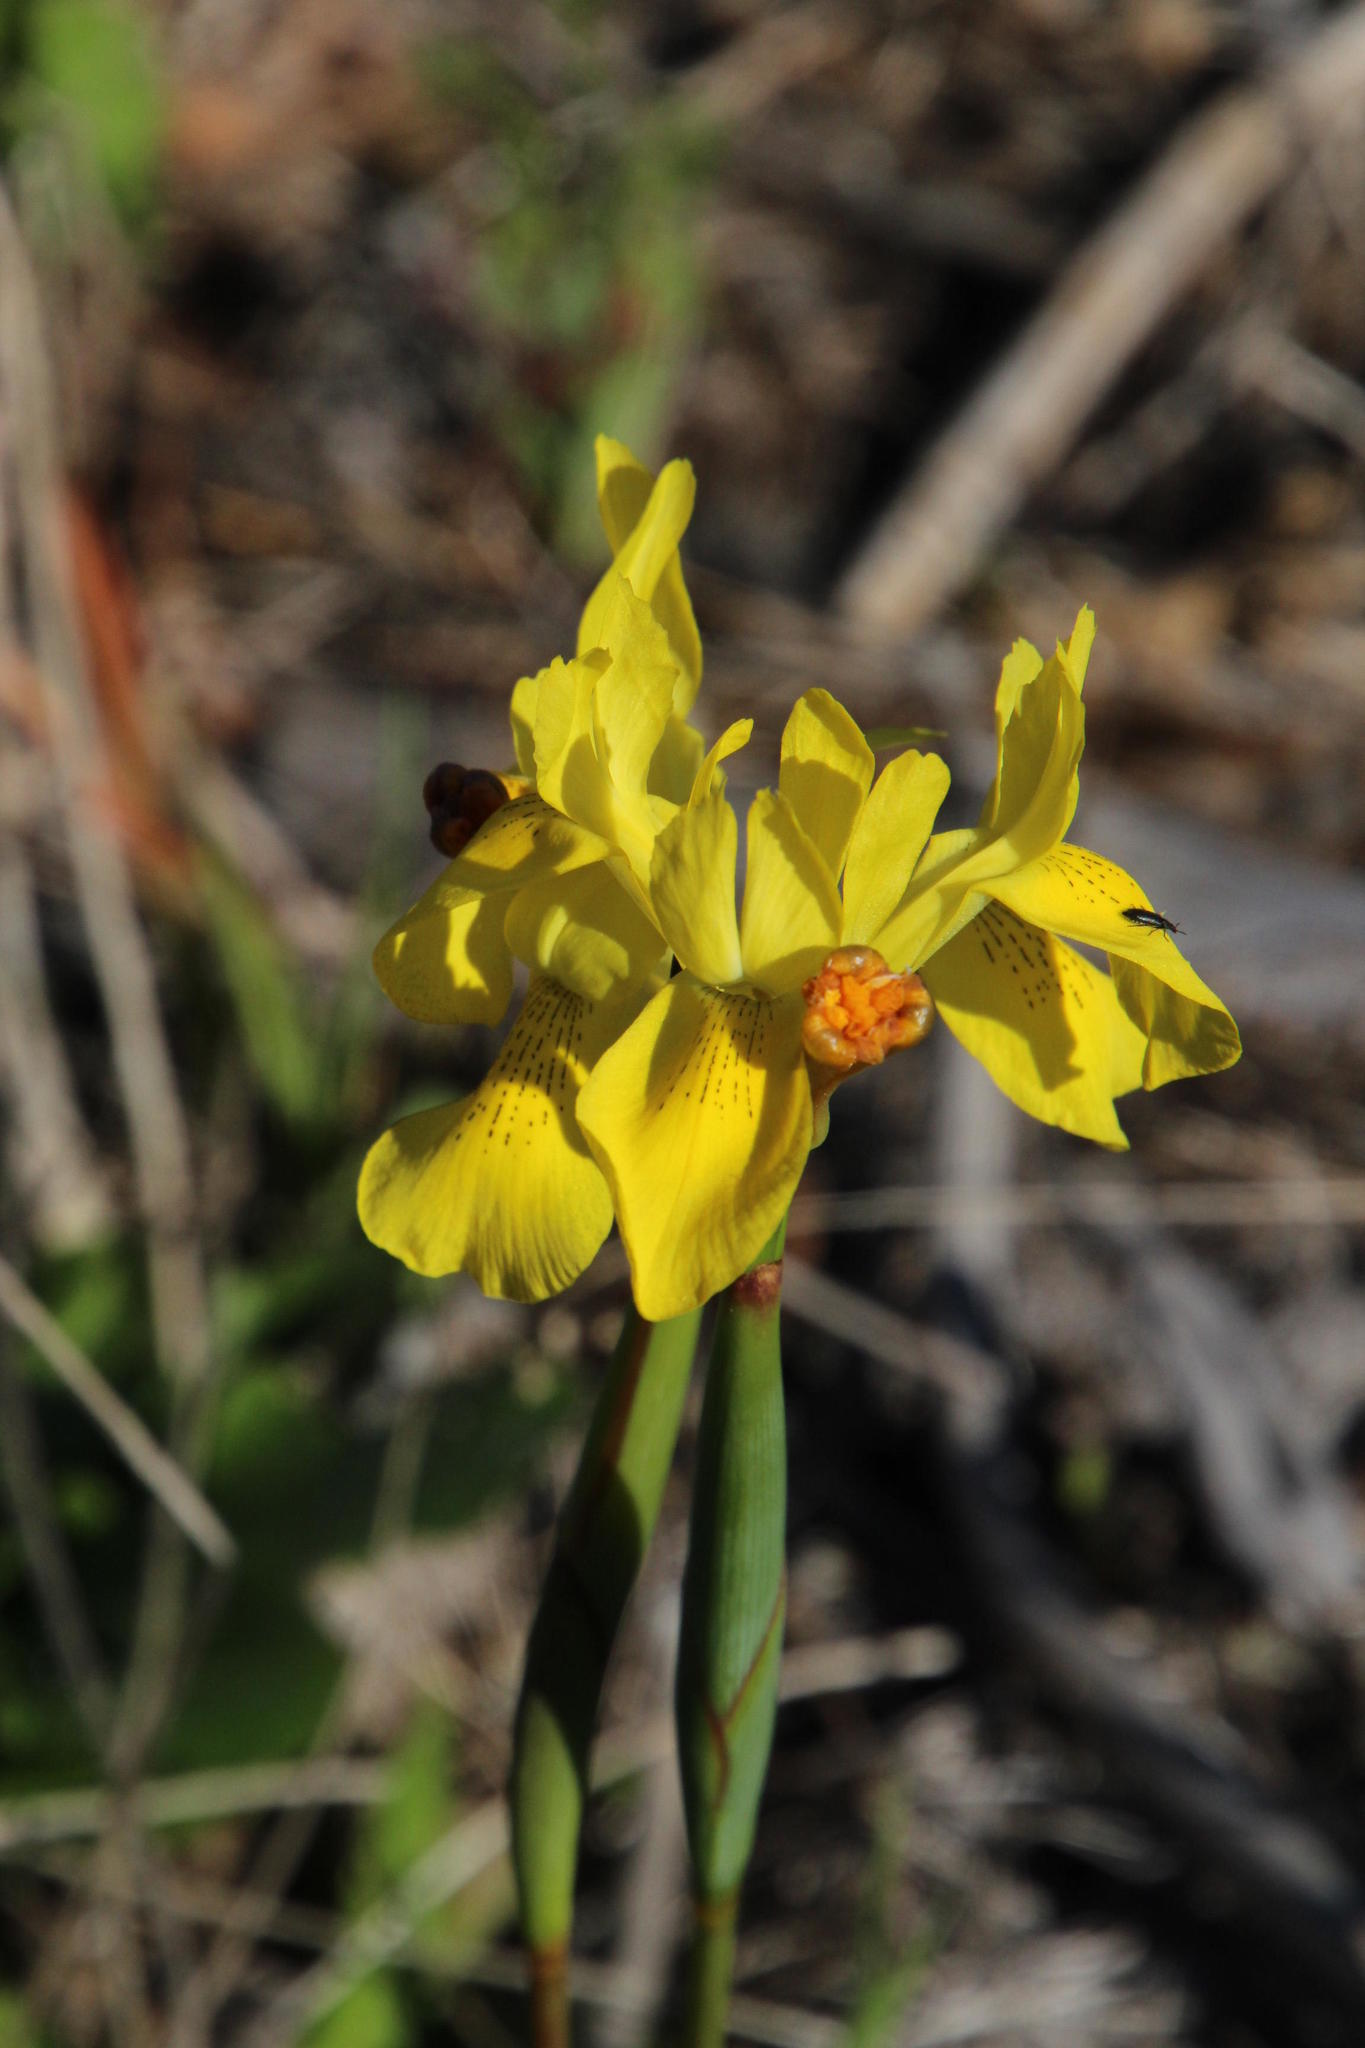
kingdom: Plantae
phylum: Tracheophyta
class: Liliopsida
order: Asparagales
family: Iridaceae
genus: Moraea
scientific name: Moraea neglecta
